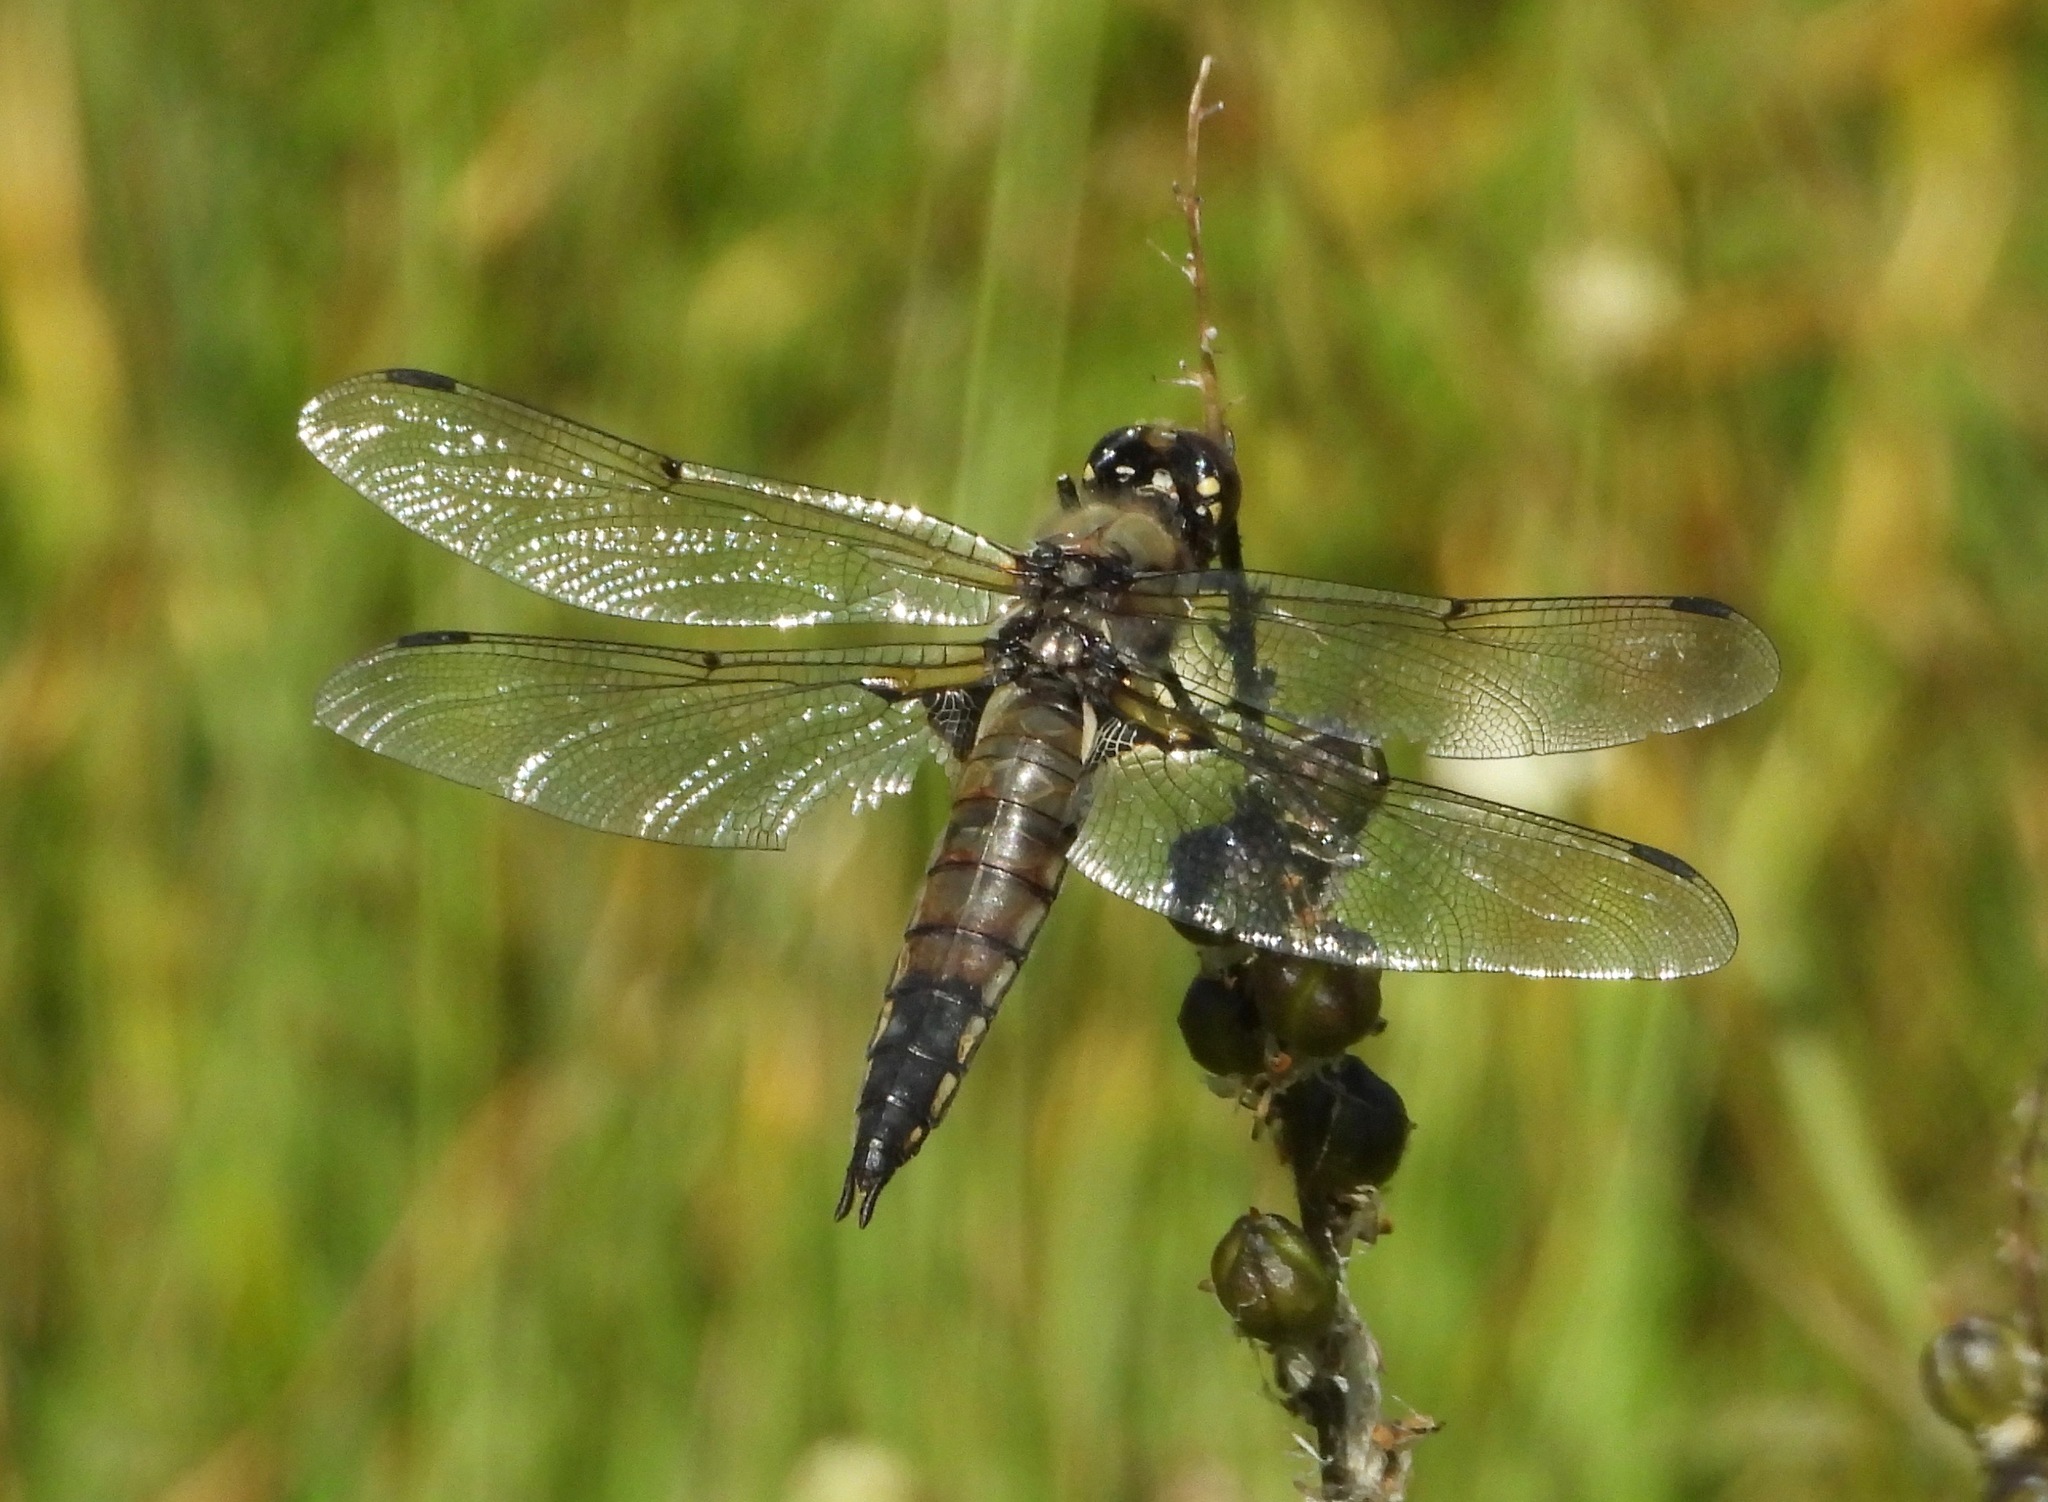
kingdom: Animalia
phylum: Arthropoda
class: Insecta
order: Odonata
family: Libellulidae
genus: Libellula
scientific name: Libellula quadrimaculata
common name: Four-spotted chaser
